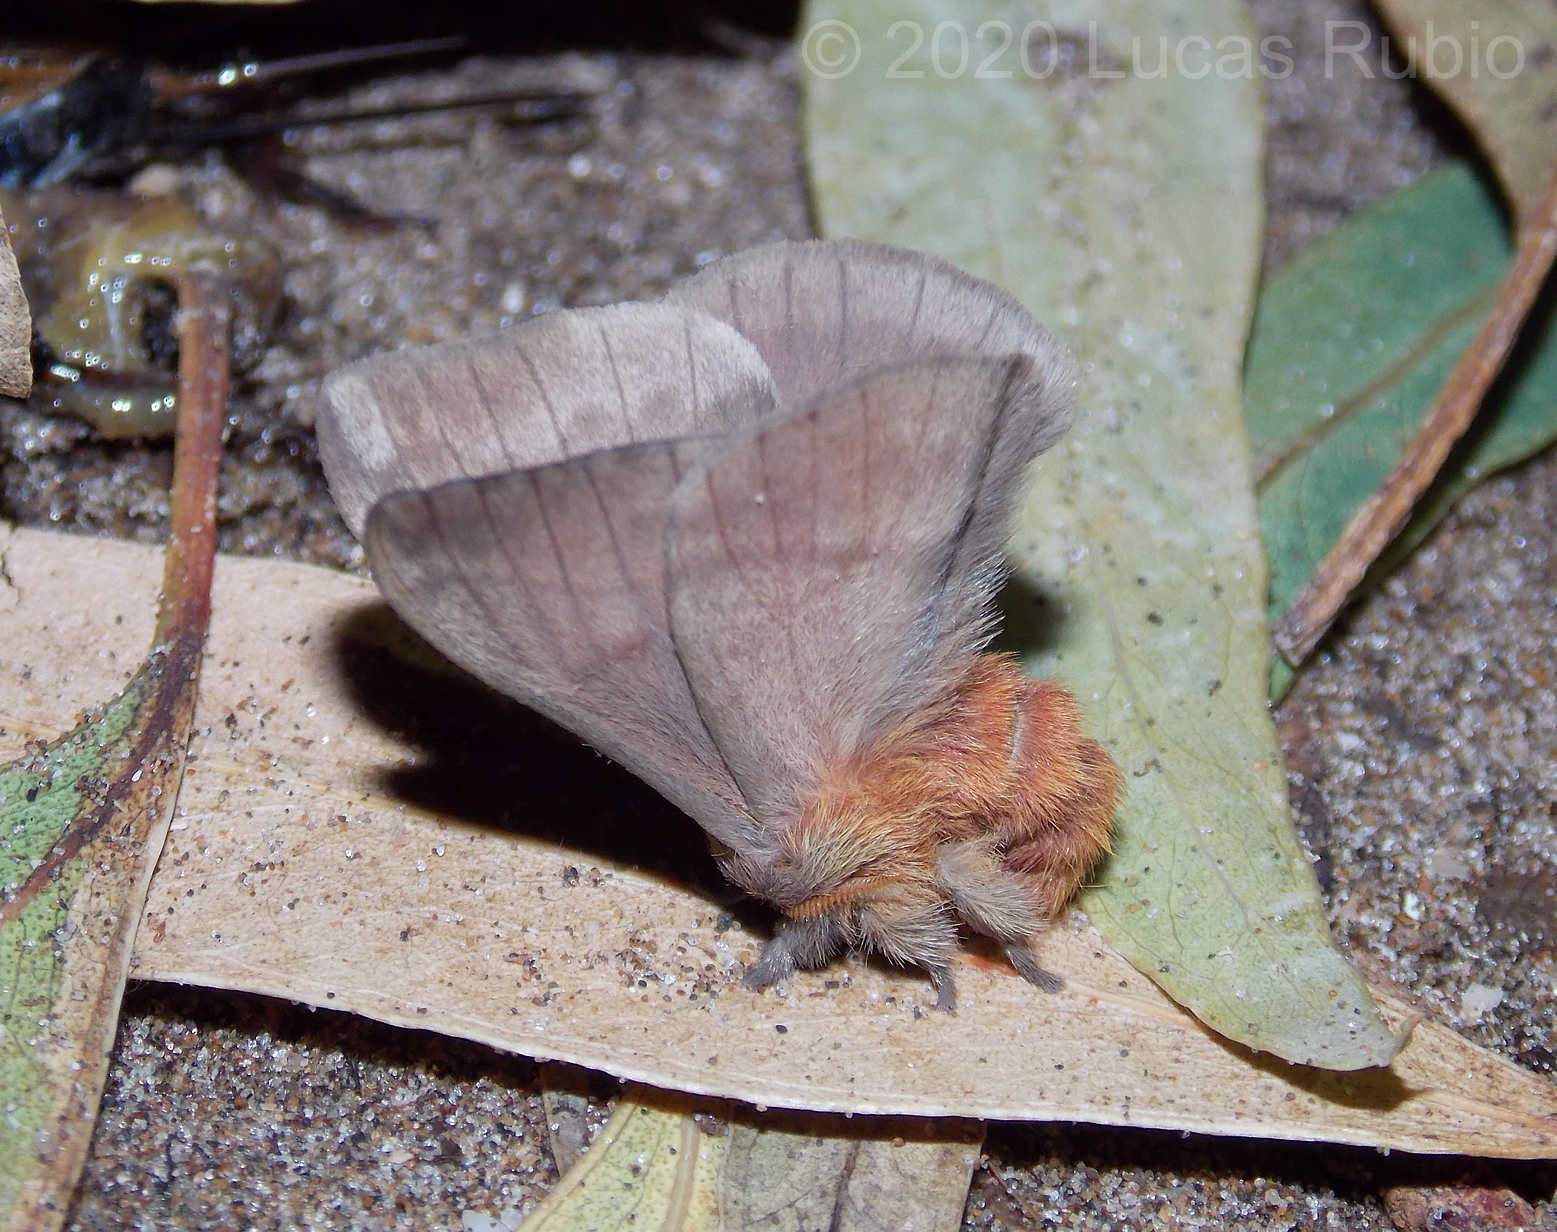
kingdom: Animalia
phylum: Arthropoda
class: Insecta
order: Lepidoptera
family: Saturniidae
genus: Hylesia
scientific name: Hylesia nigricans
